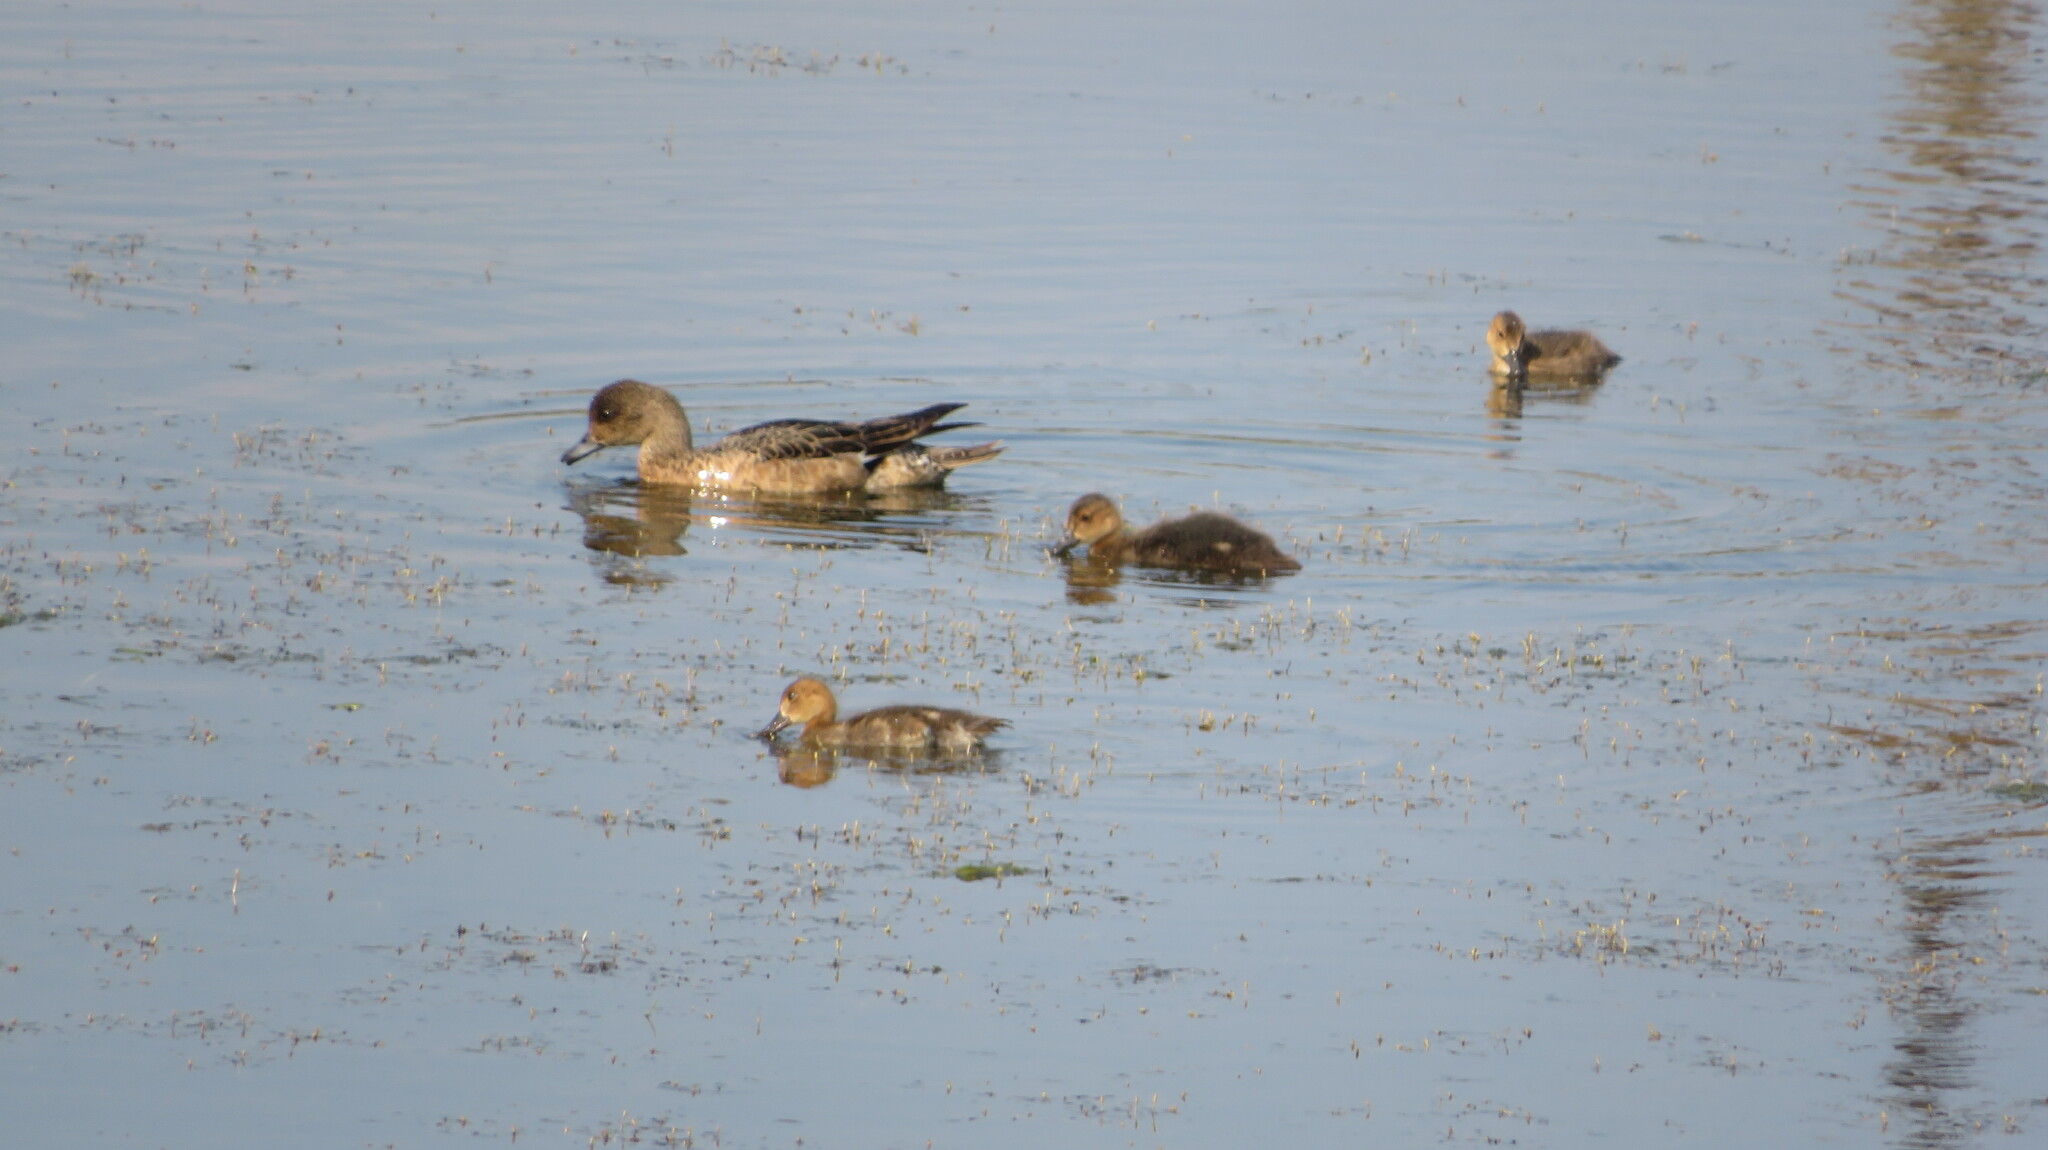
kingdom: Animalia
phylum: Chordata
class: Aves
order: Anseriformes
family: Anatidae
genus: Mareca
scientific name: Mareca penelope
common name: Eurasian wigeon
